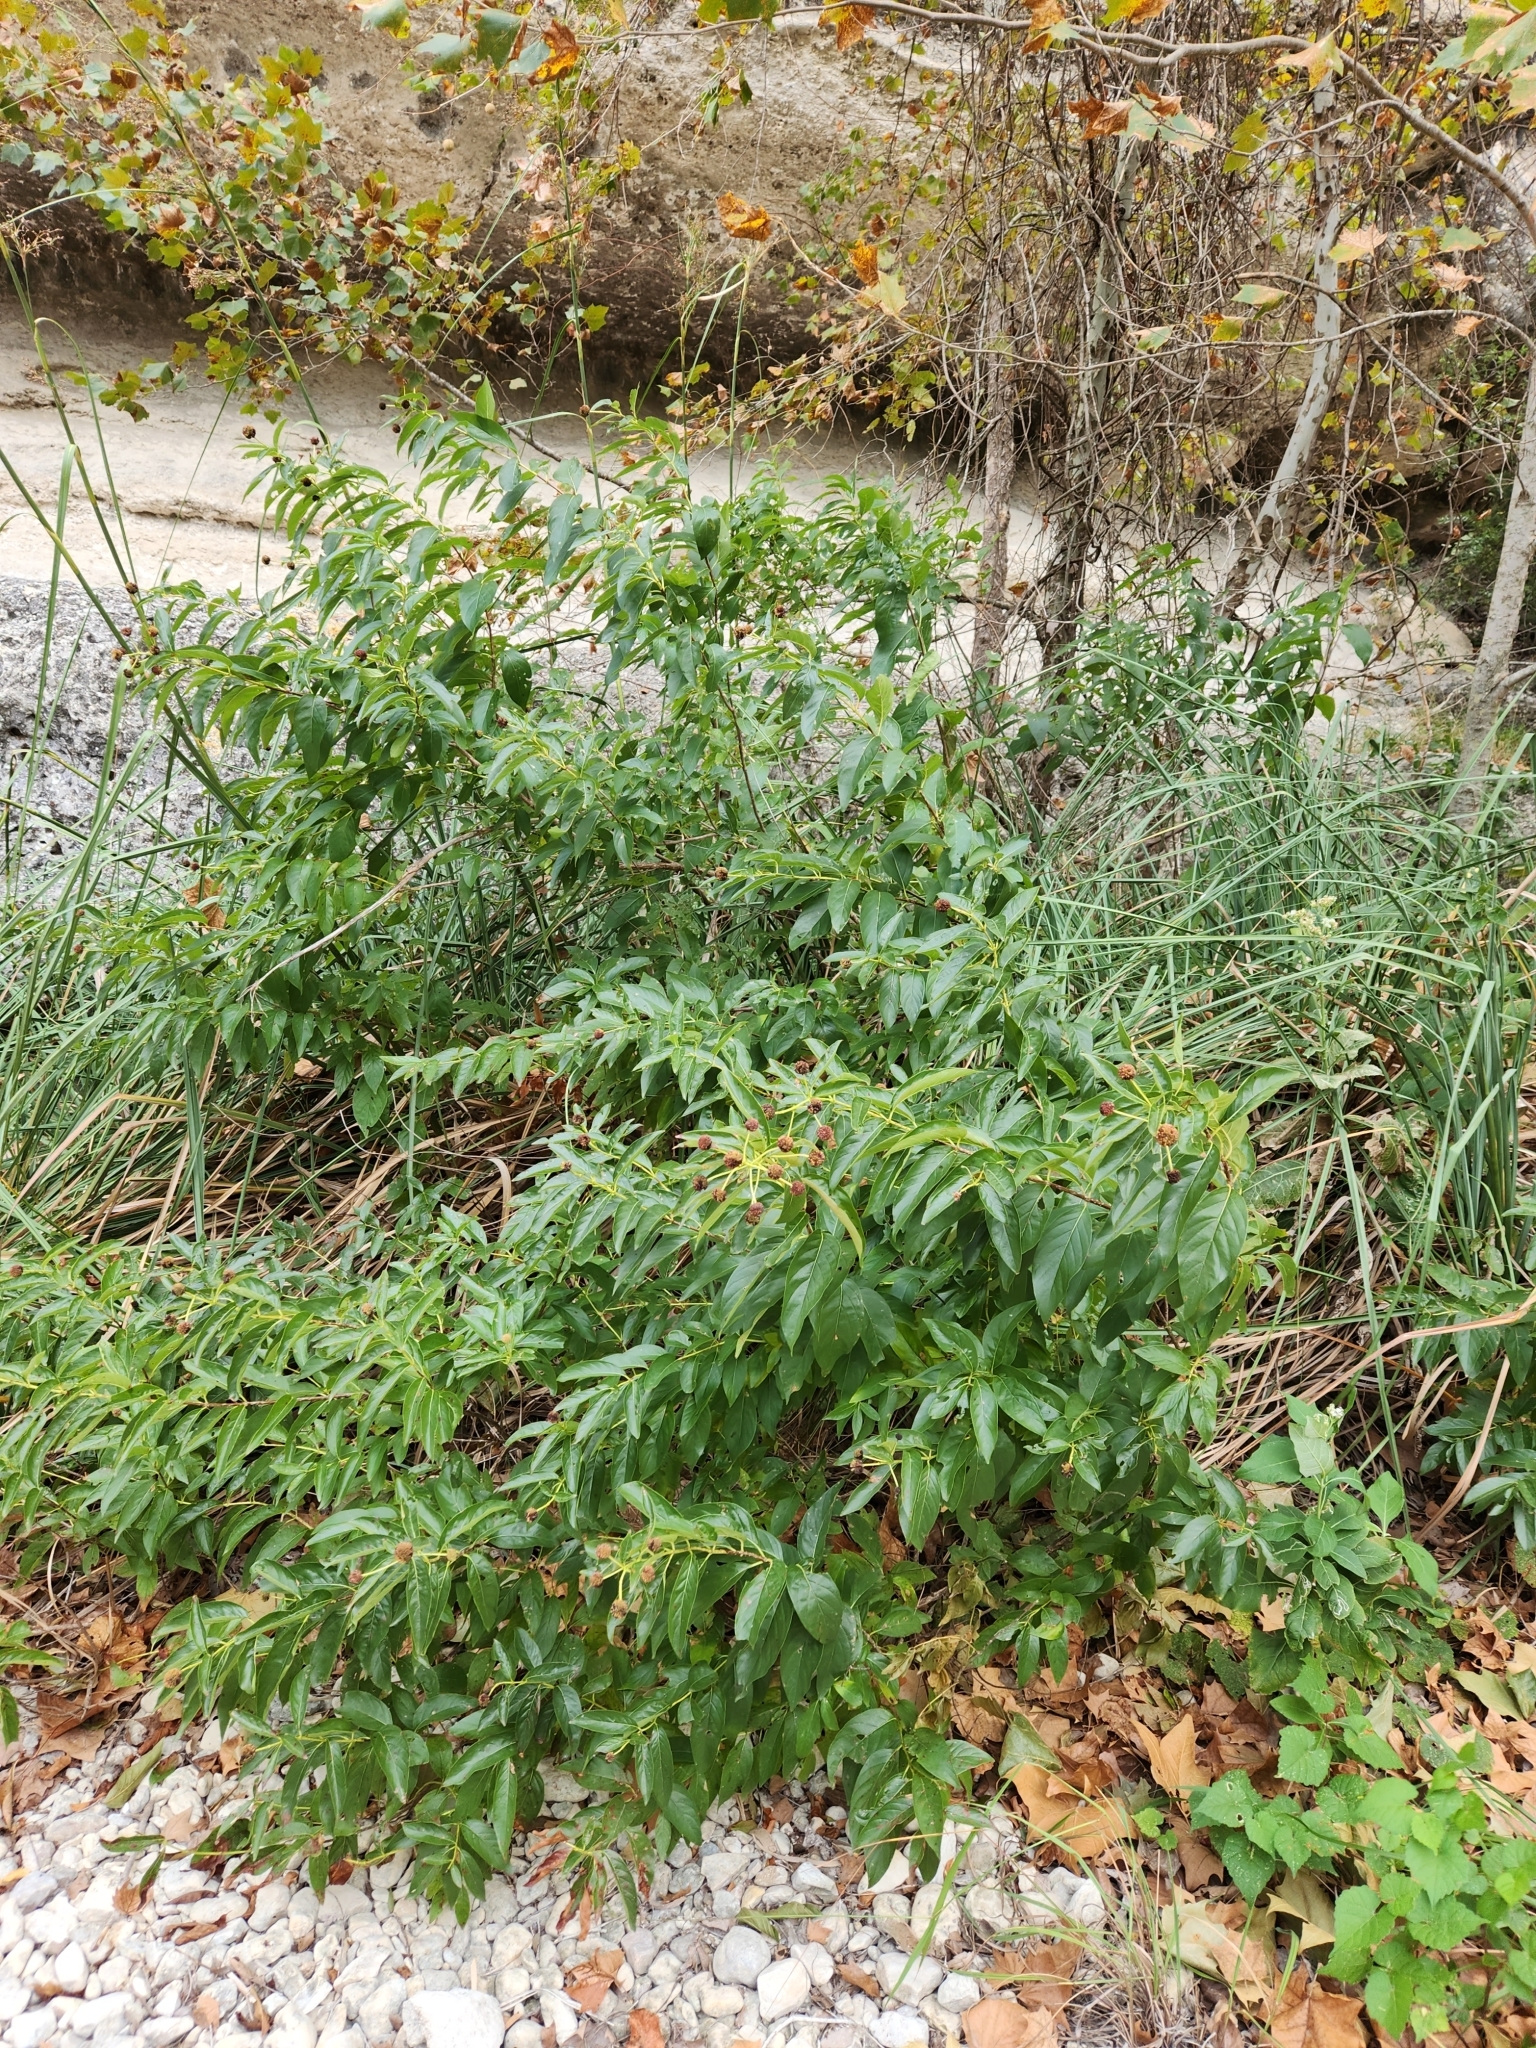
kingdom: Plantae
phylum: Tracheophyta
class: Magnoliopsida
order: Gentianales
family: Rubiaceae
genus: Cephalanthus
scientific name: Cephalanthus occidentalis
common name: Button-willow
